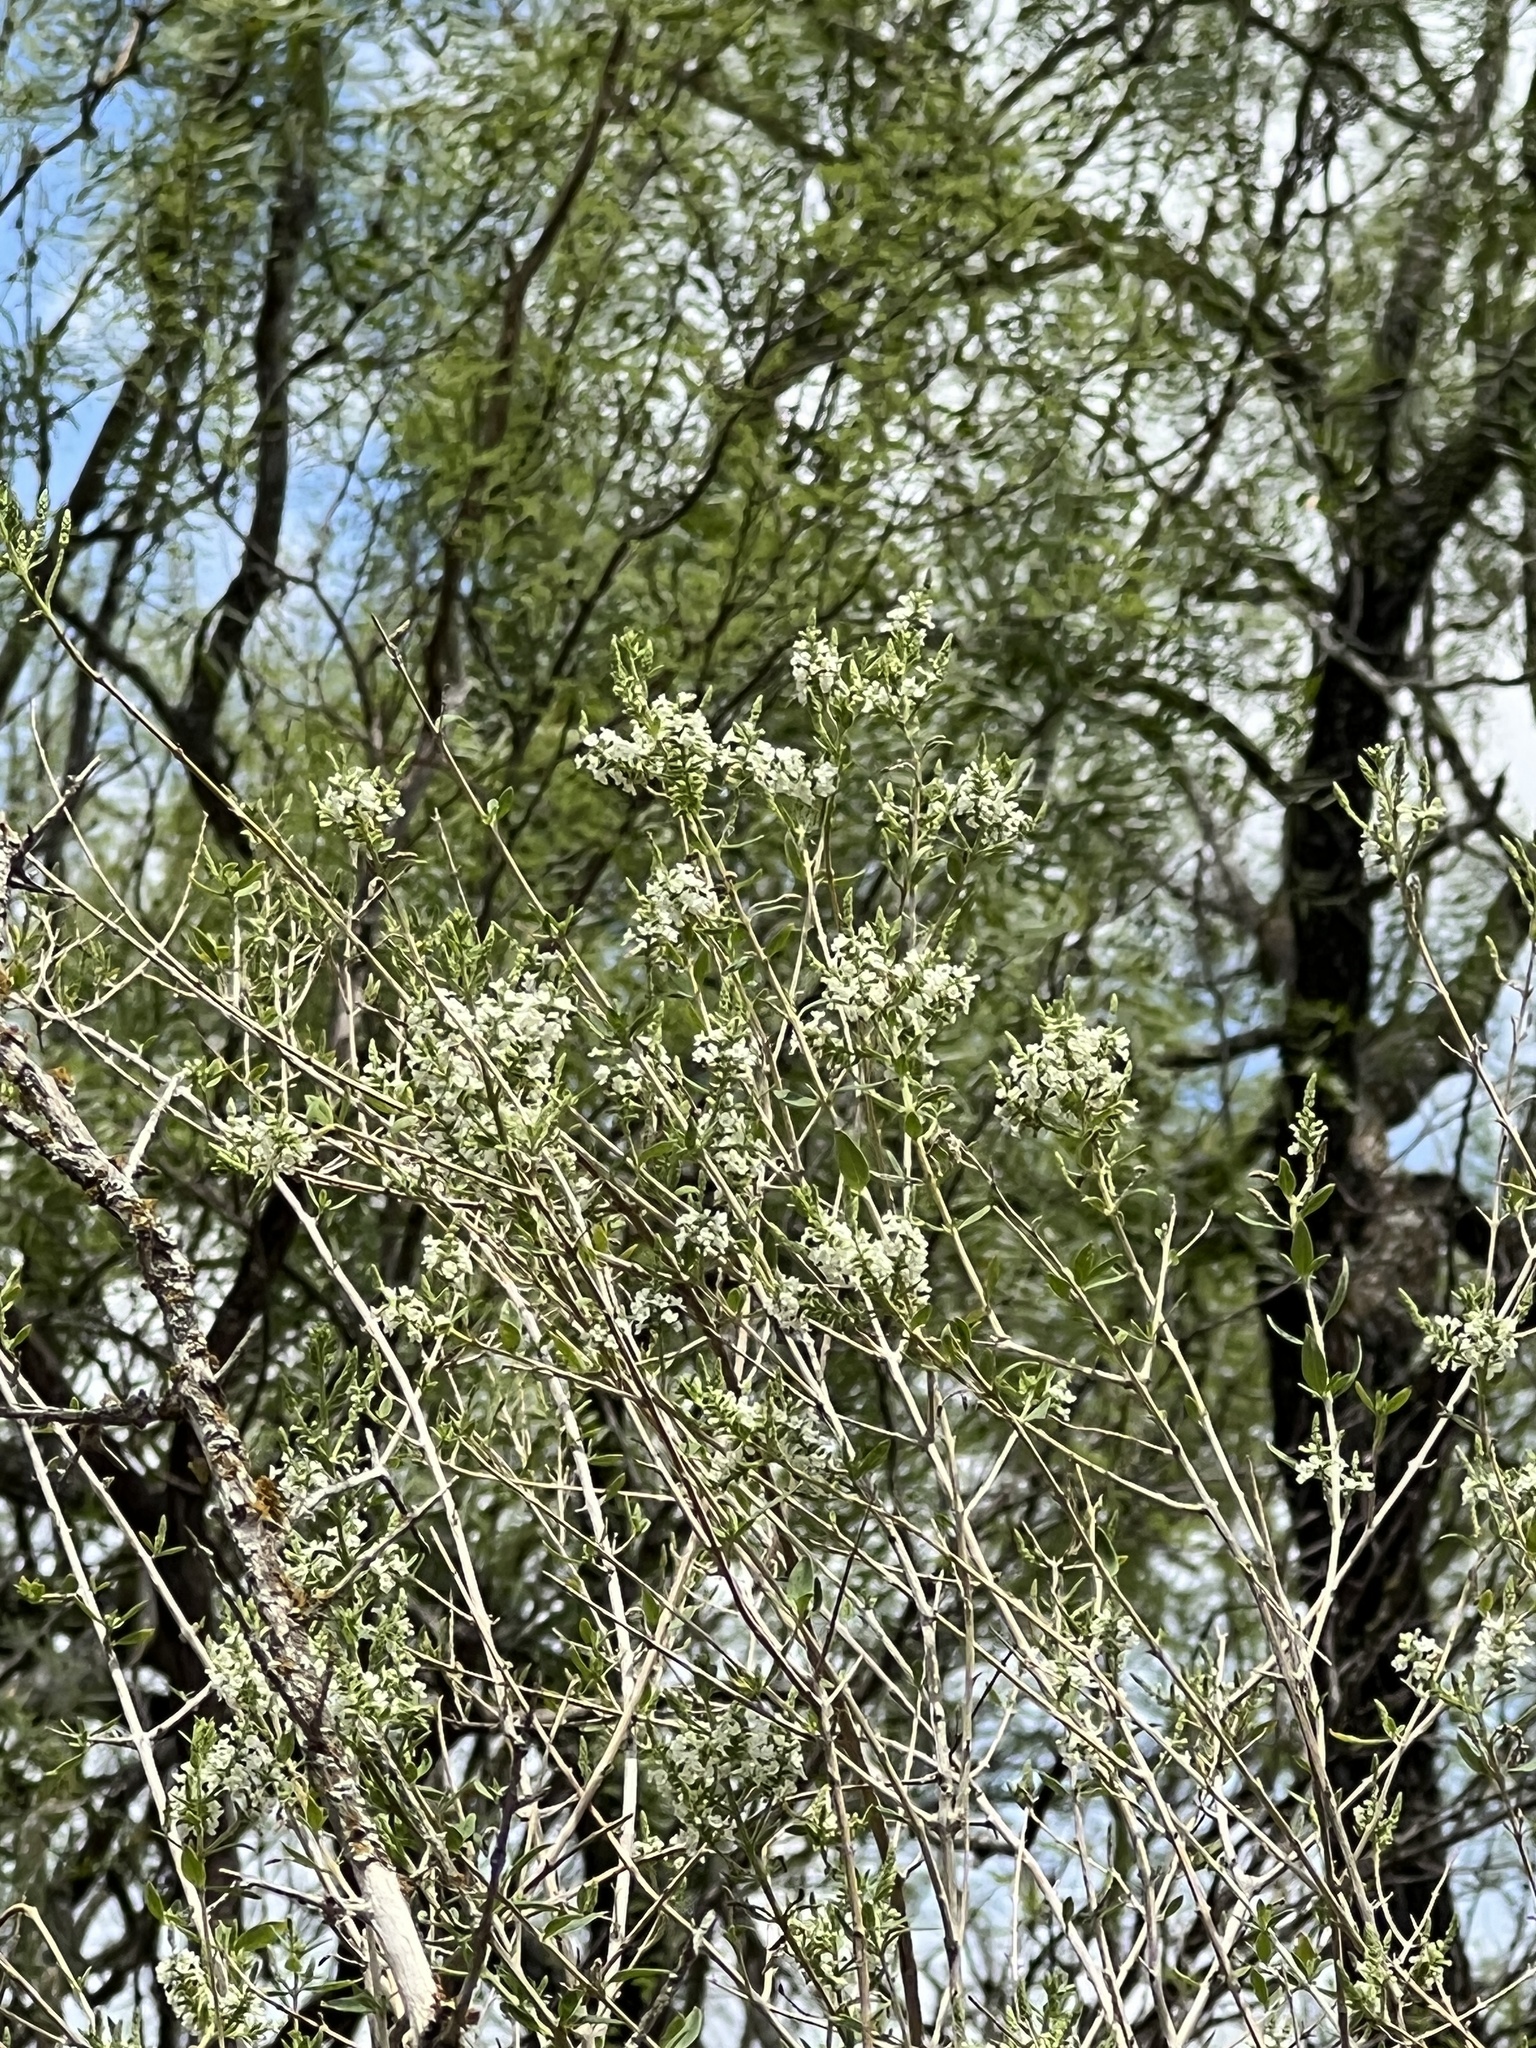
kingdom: Plantae
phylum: Tracheophyta
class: Magnoliopsida
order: Lamiales
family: Verbenaceae
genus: Aloysia
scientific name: Aloysia gratissima
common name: Common bee-brush
